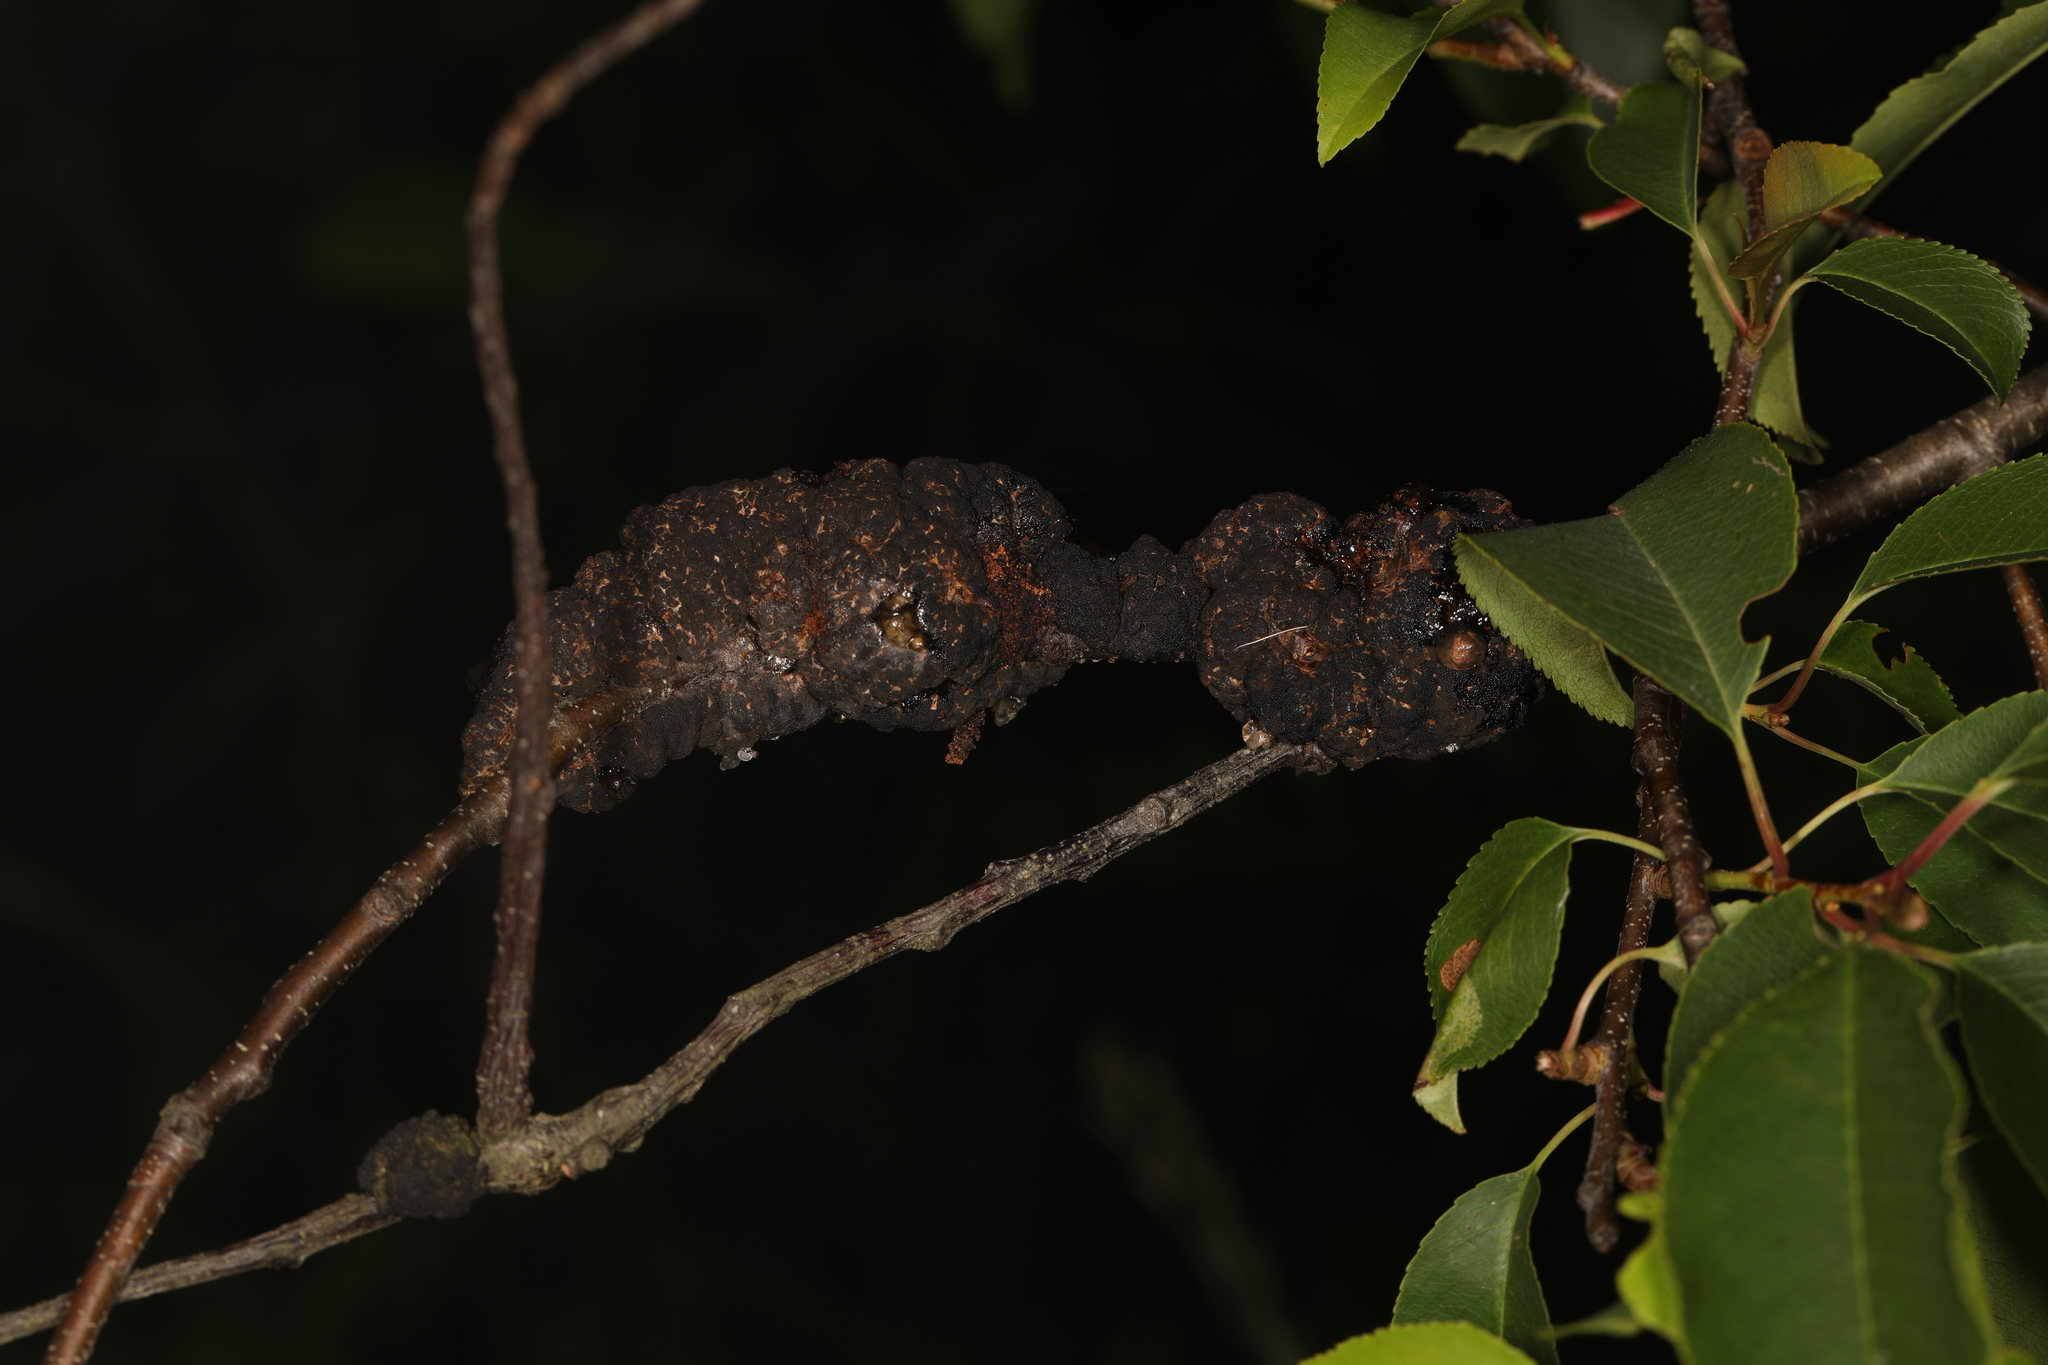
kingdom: Fungi
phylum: Ascomycota
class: Dothideomycetes
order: Venturiales
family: Venturiaceae
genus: Apiosporina
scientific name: Apiosporina morbosa
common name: Black knot
